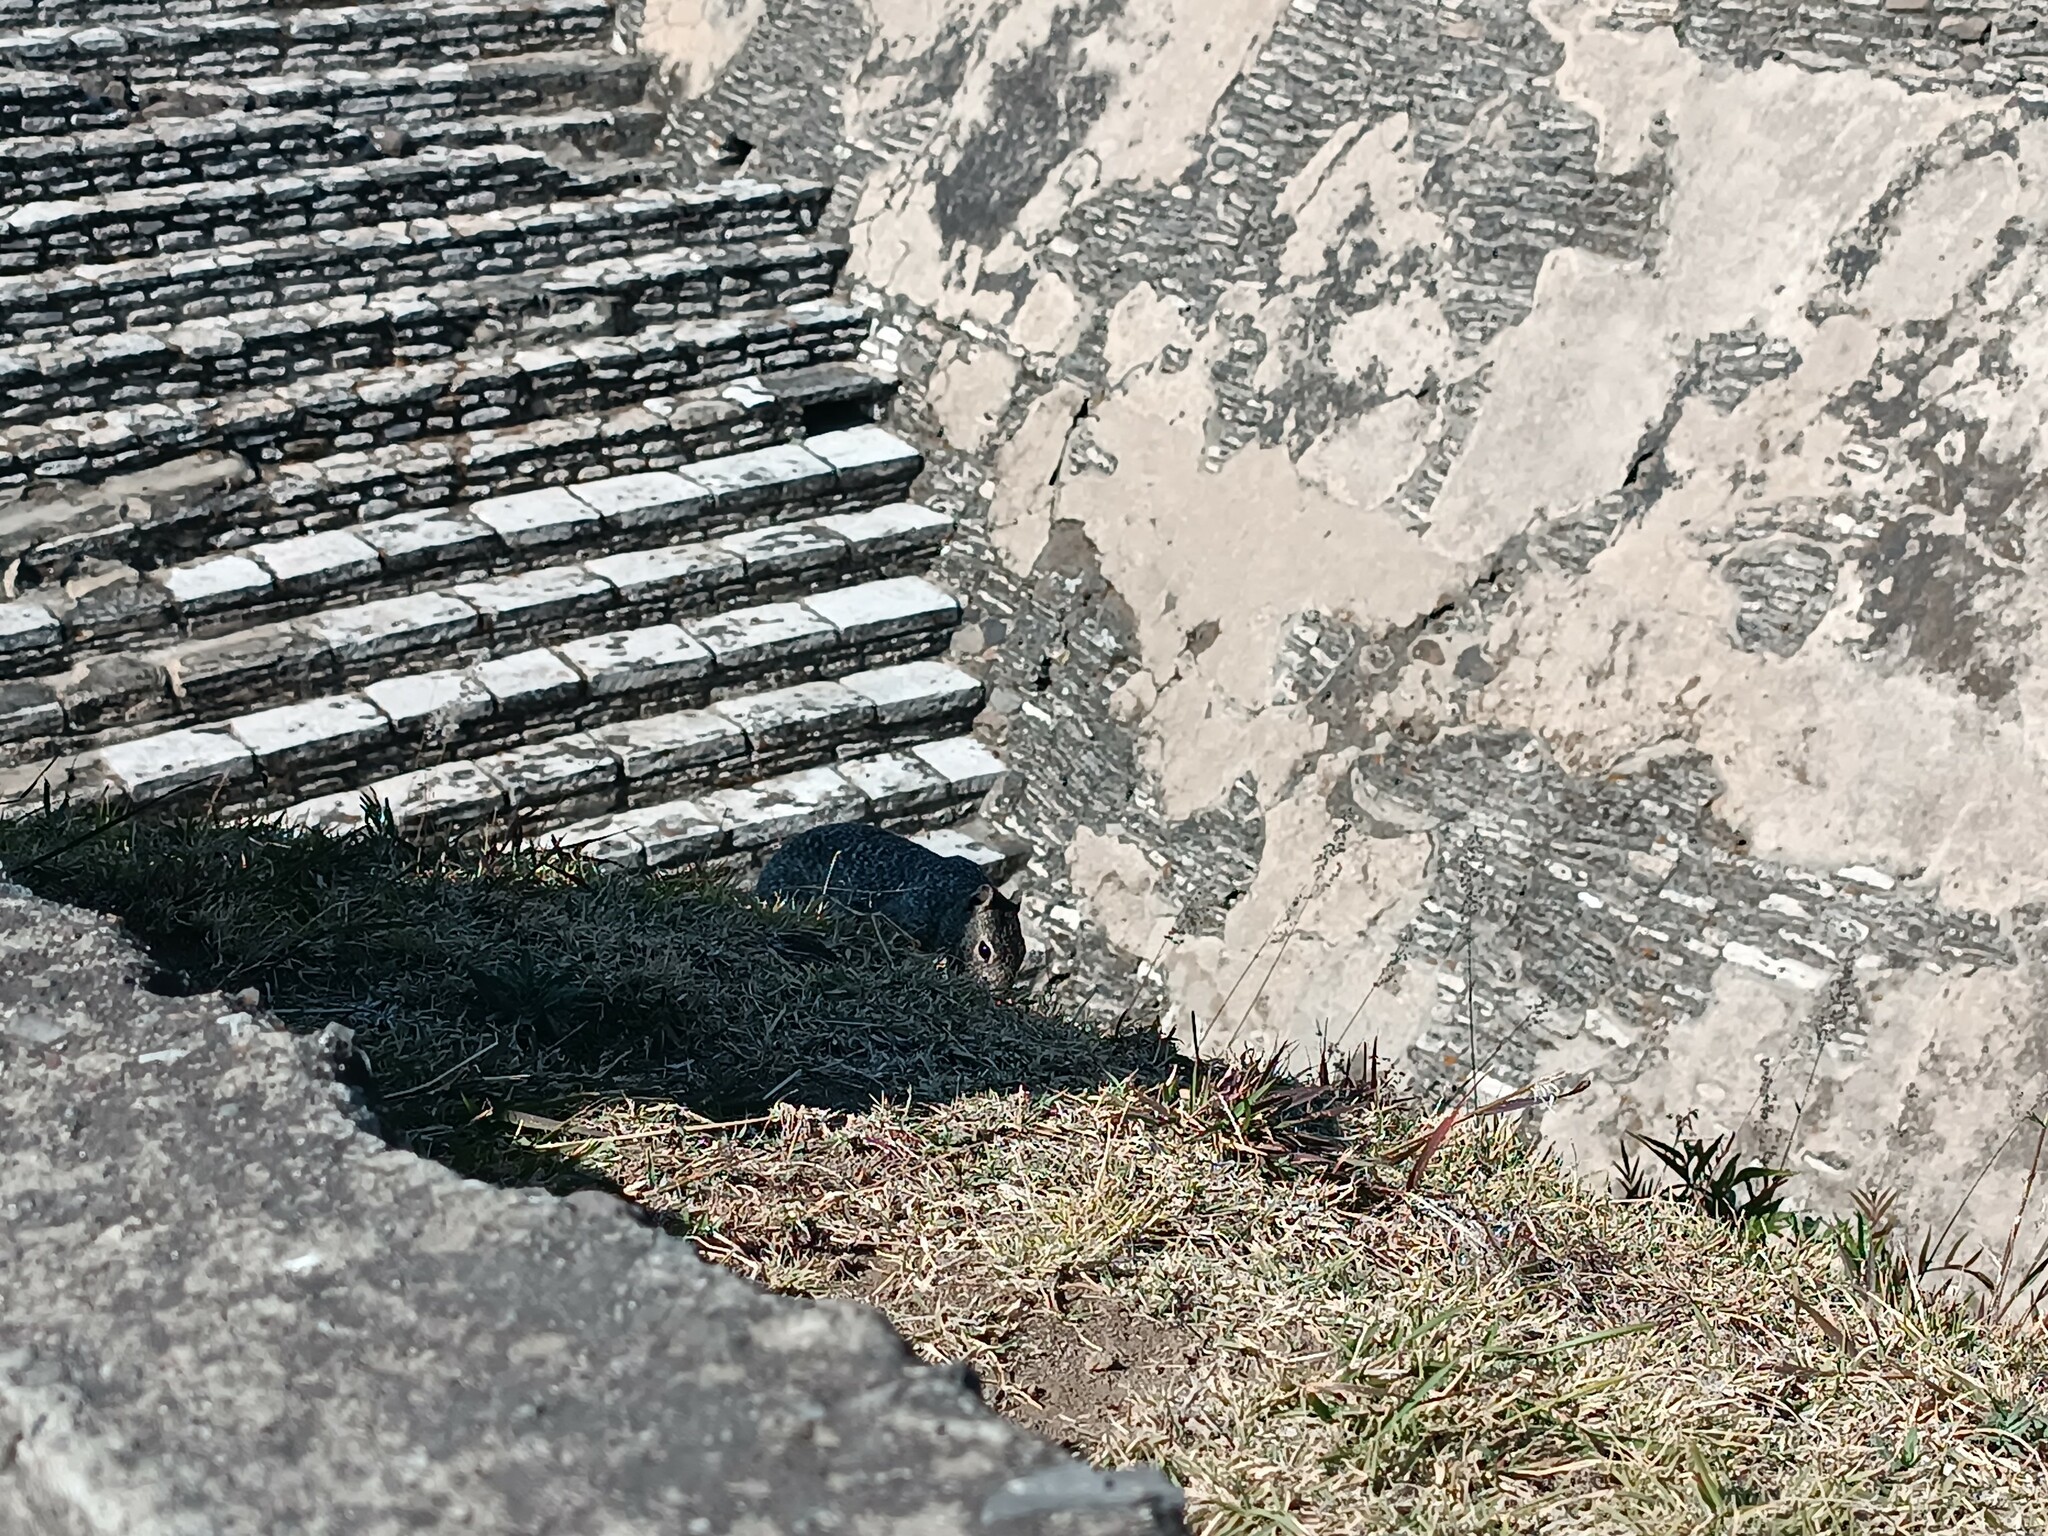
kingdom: Animalia
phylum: Chordata
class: Mammalia
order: Rodentia
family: Sciuridae
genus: Otospermophilus
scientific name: Otospermophilus variegatus
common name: Rock squirrel
